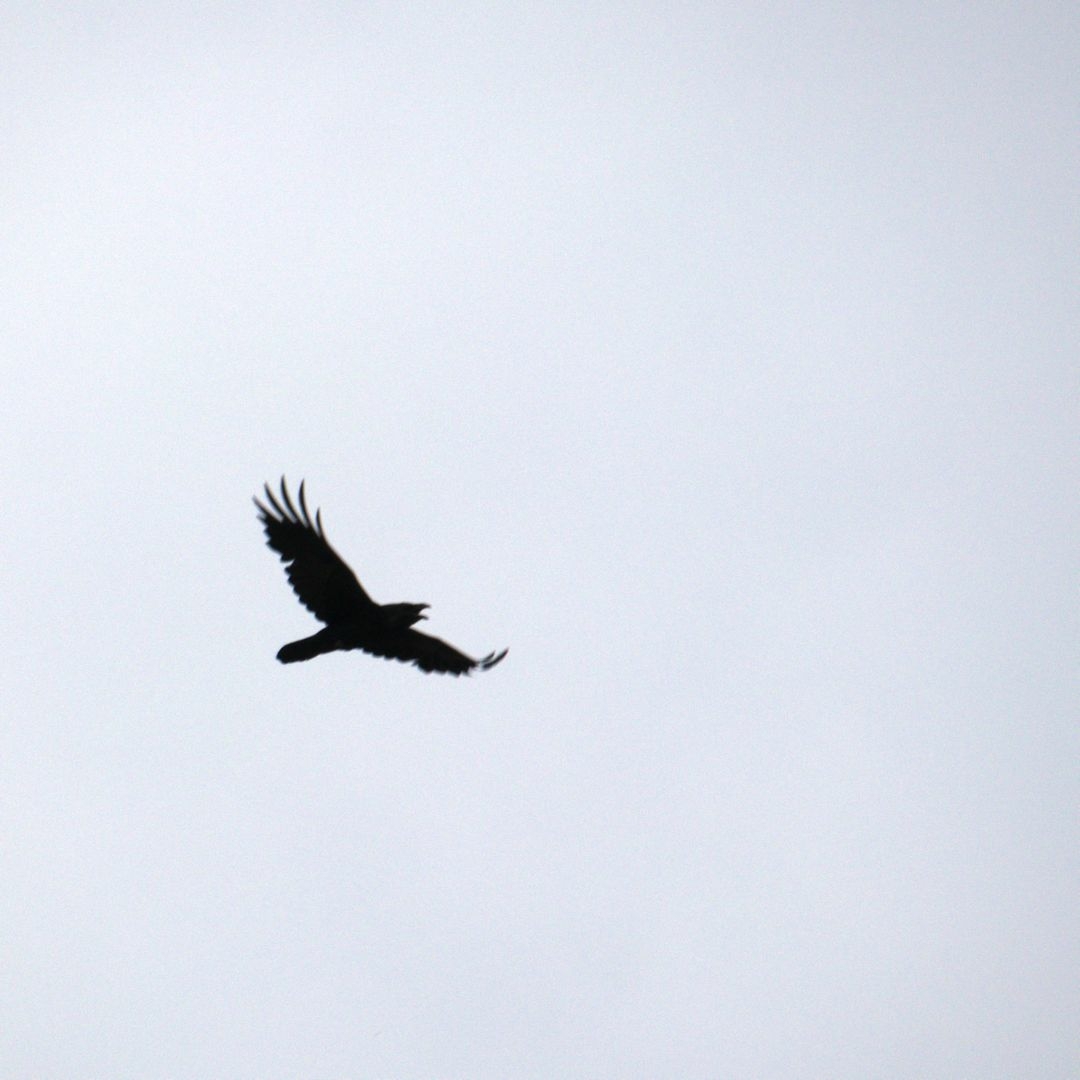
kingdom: Animalia
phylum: Chordata
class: Aves
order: Passeriformes
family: Corvidae
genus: Corvus
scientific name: Corvus corax
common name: Common raven
